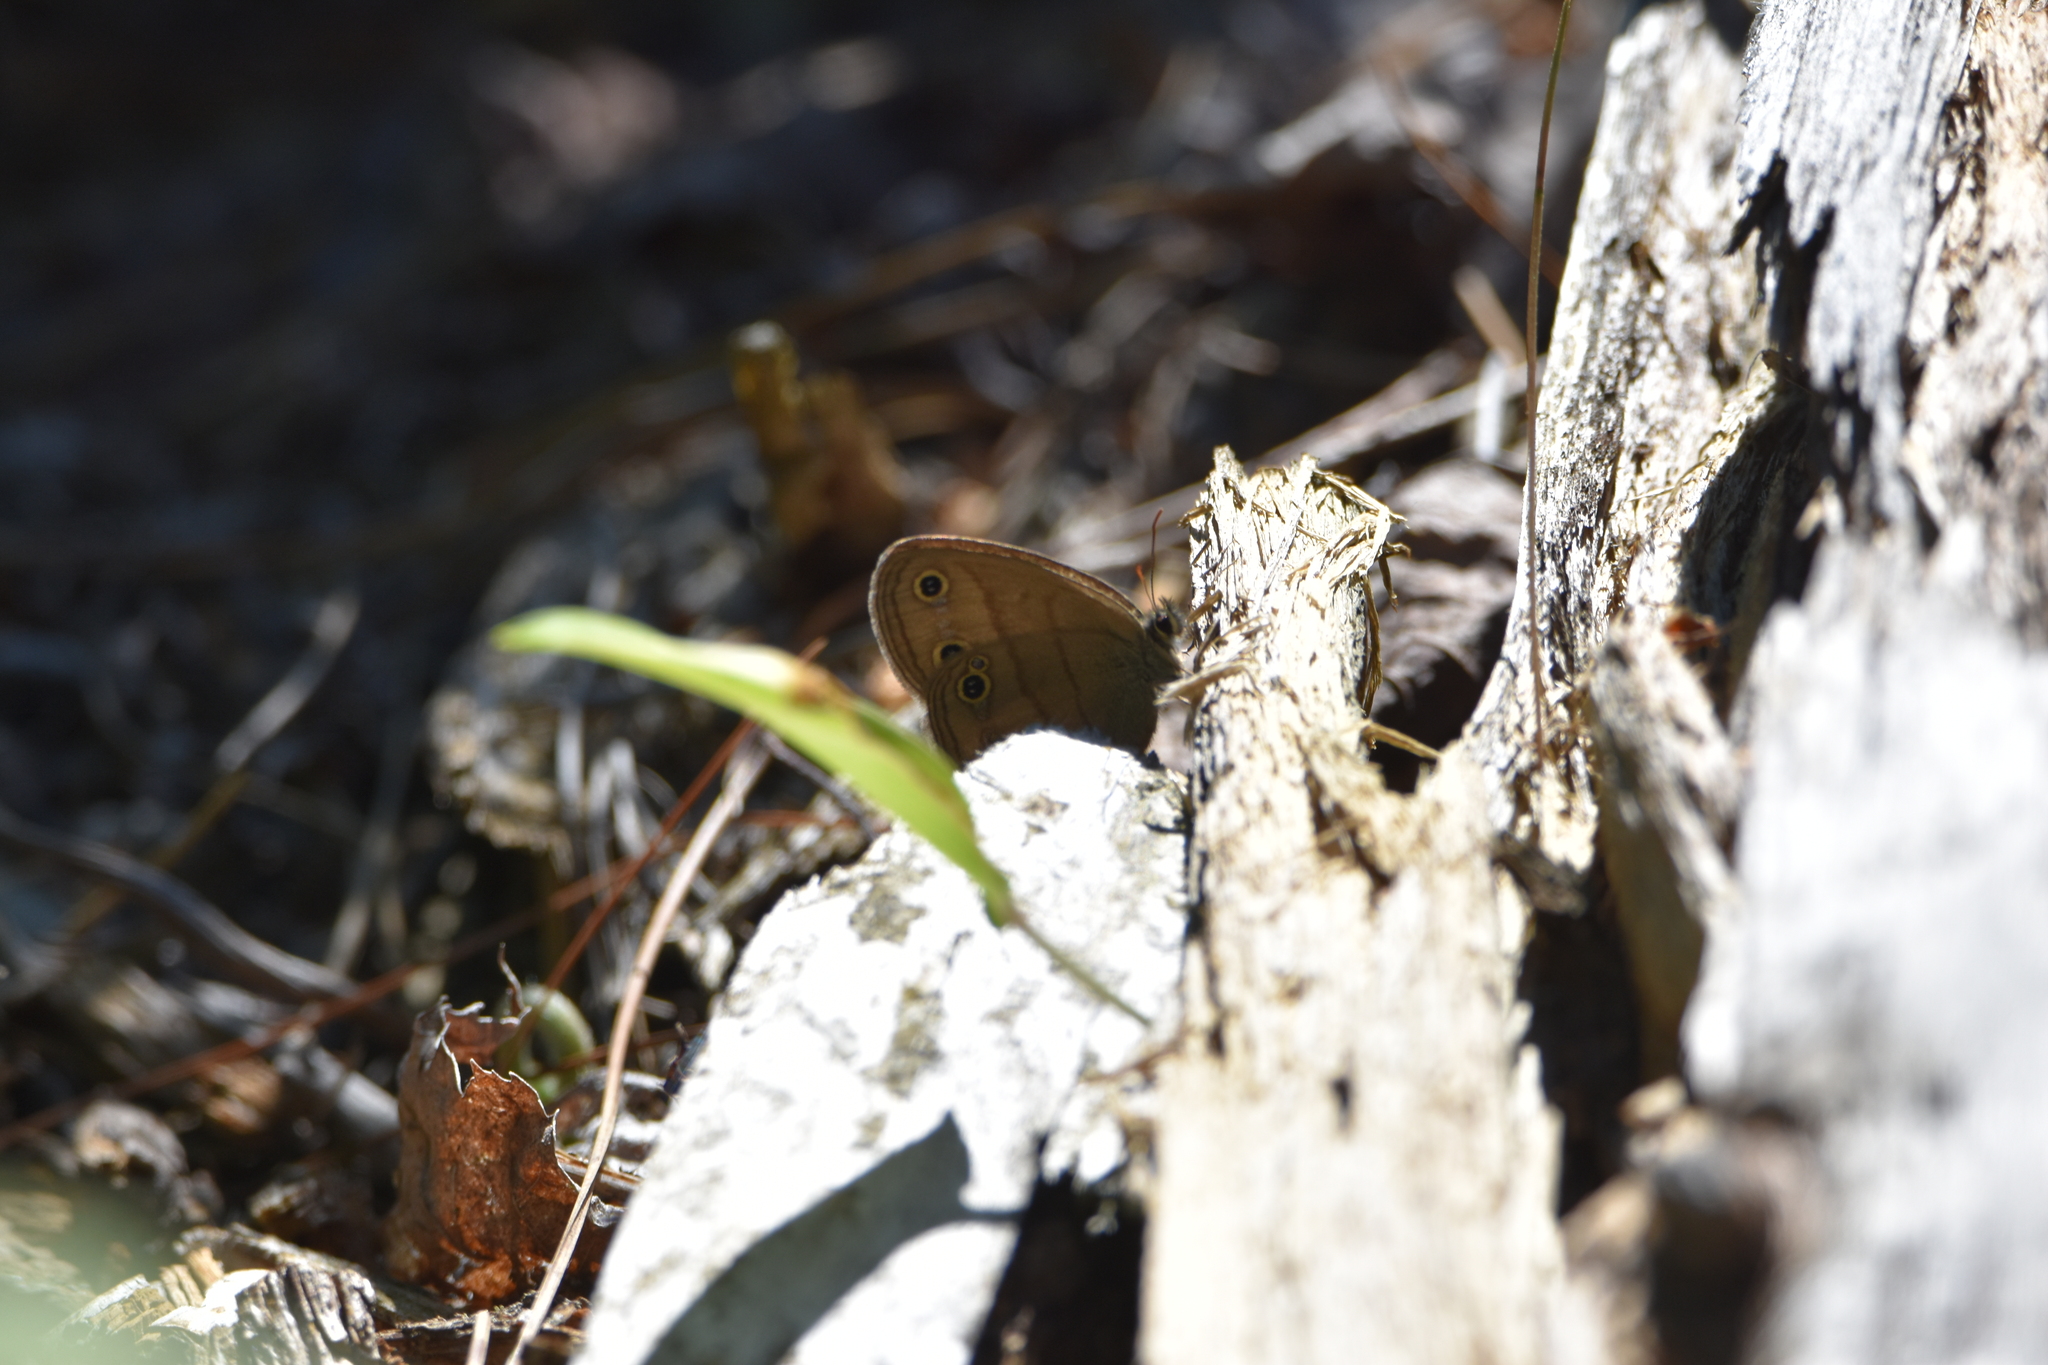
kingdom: Animalia
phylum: Arthropoda
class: Insecta
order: Lepidoptera
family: Nymphalidae
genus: Euptychia
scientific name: Euptychia cymela
